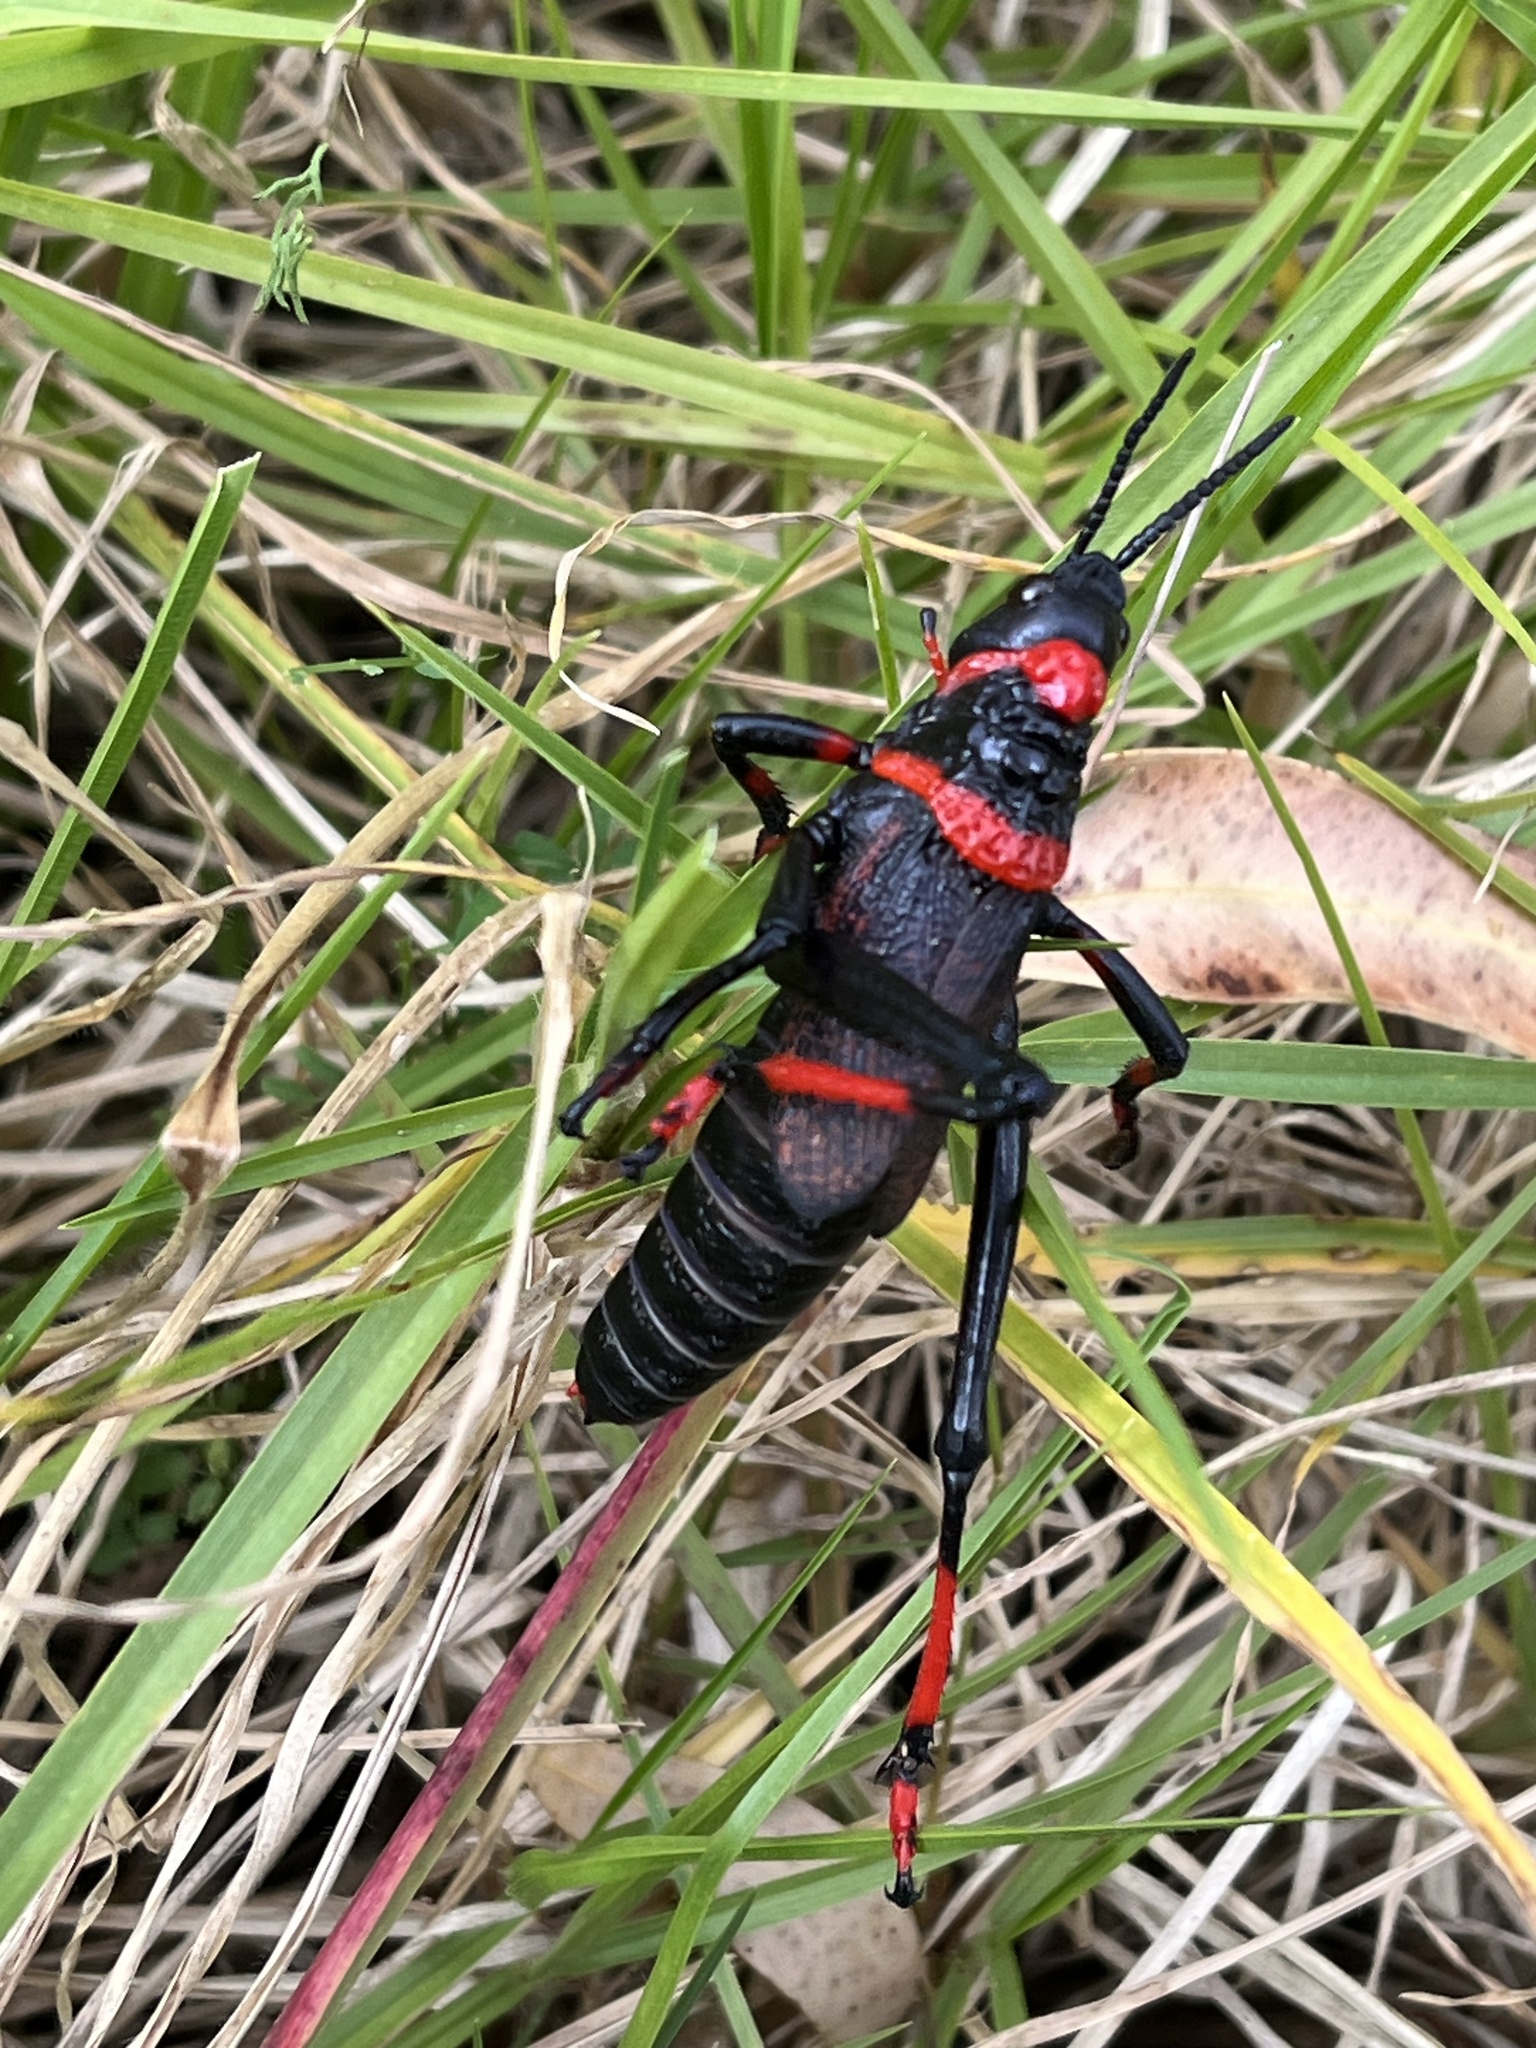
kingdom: Animalia
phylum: Arthropoda
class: Insecta
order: Orthoptera
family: Pyrgomorphidae
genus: Dictyophorus
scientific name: Dictyophorus spumans
